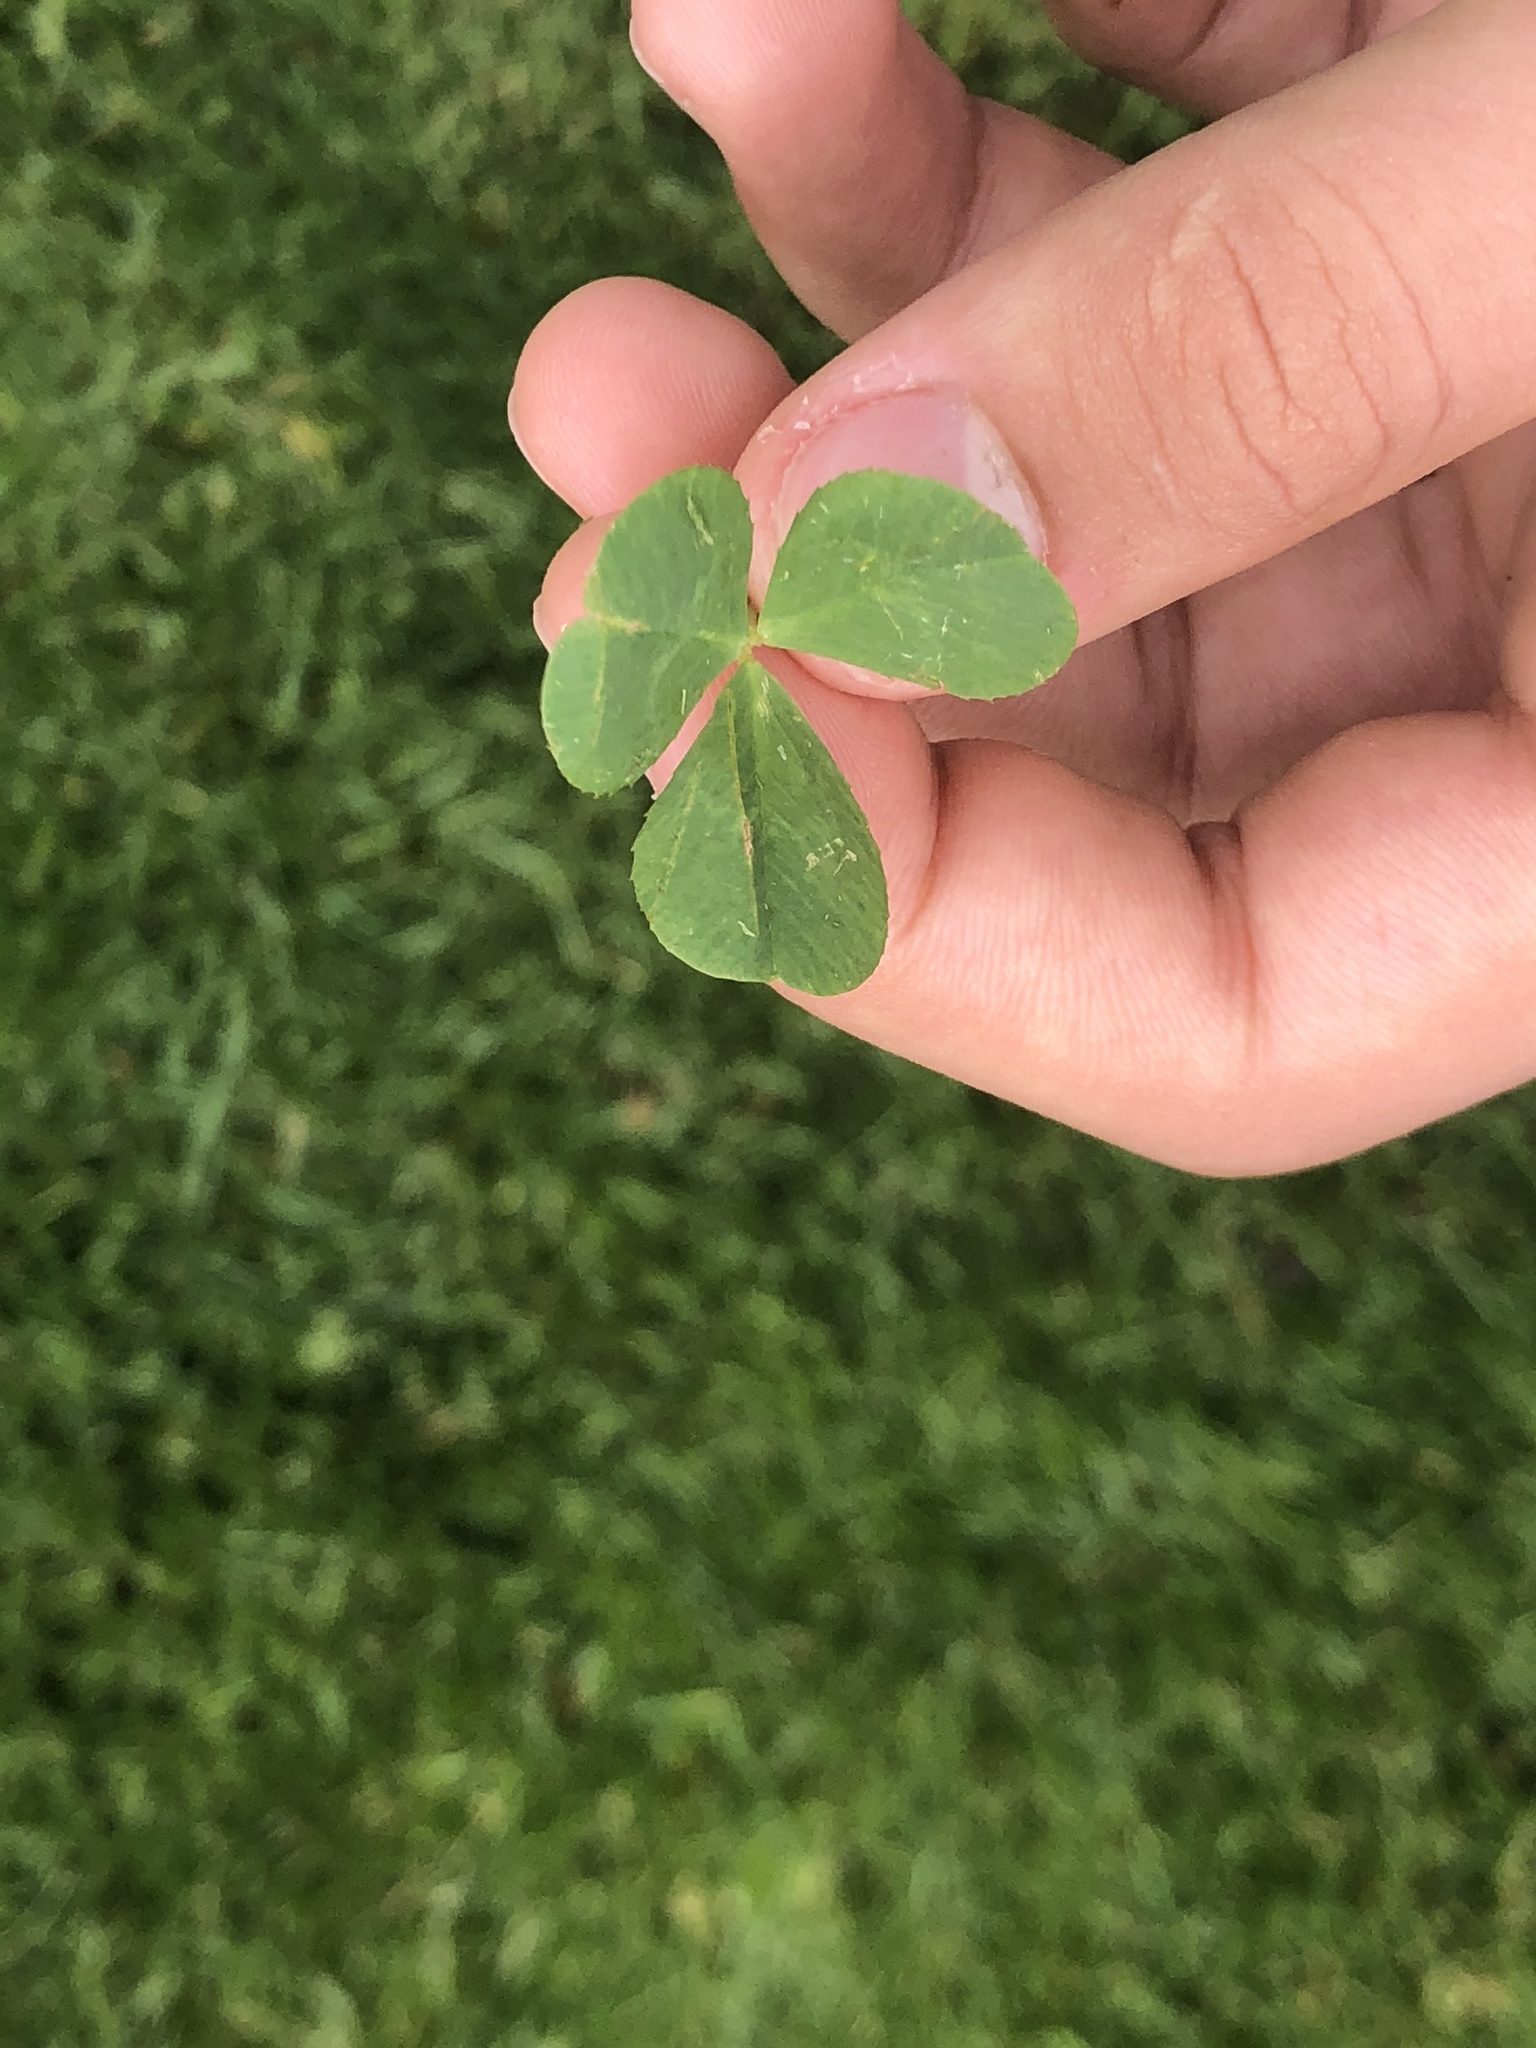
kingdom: Plantae
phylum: Tracheophyta
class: Magnoliopsida
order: Fabales
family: Fabaceae
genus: Trifolium
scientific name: Trifolium repens
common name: White clover
